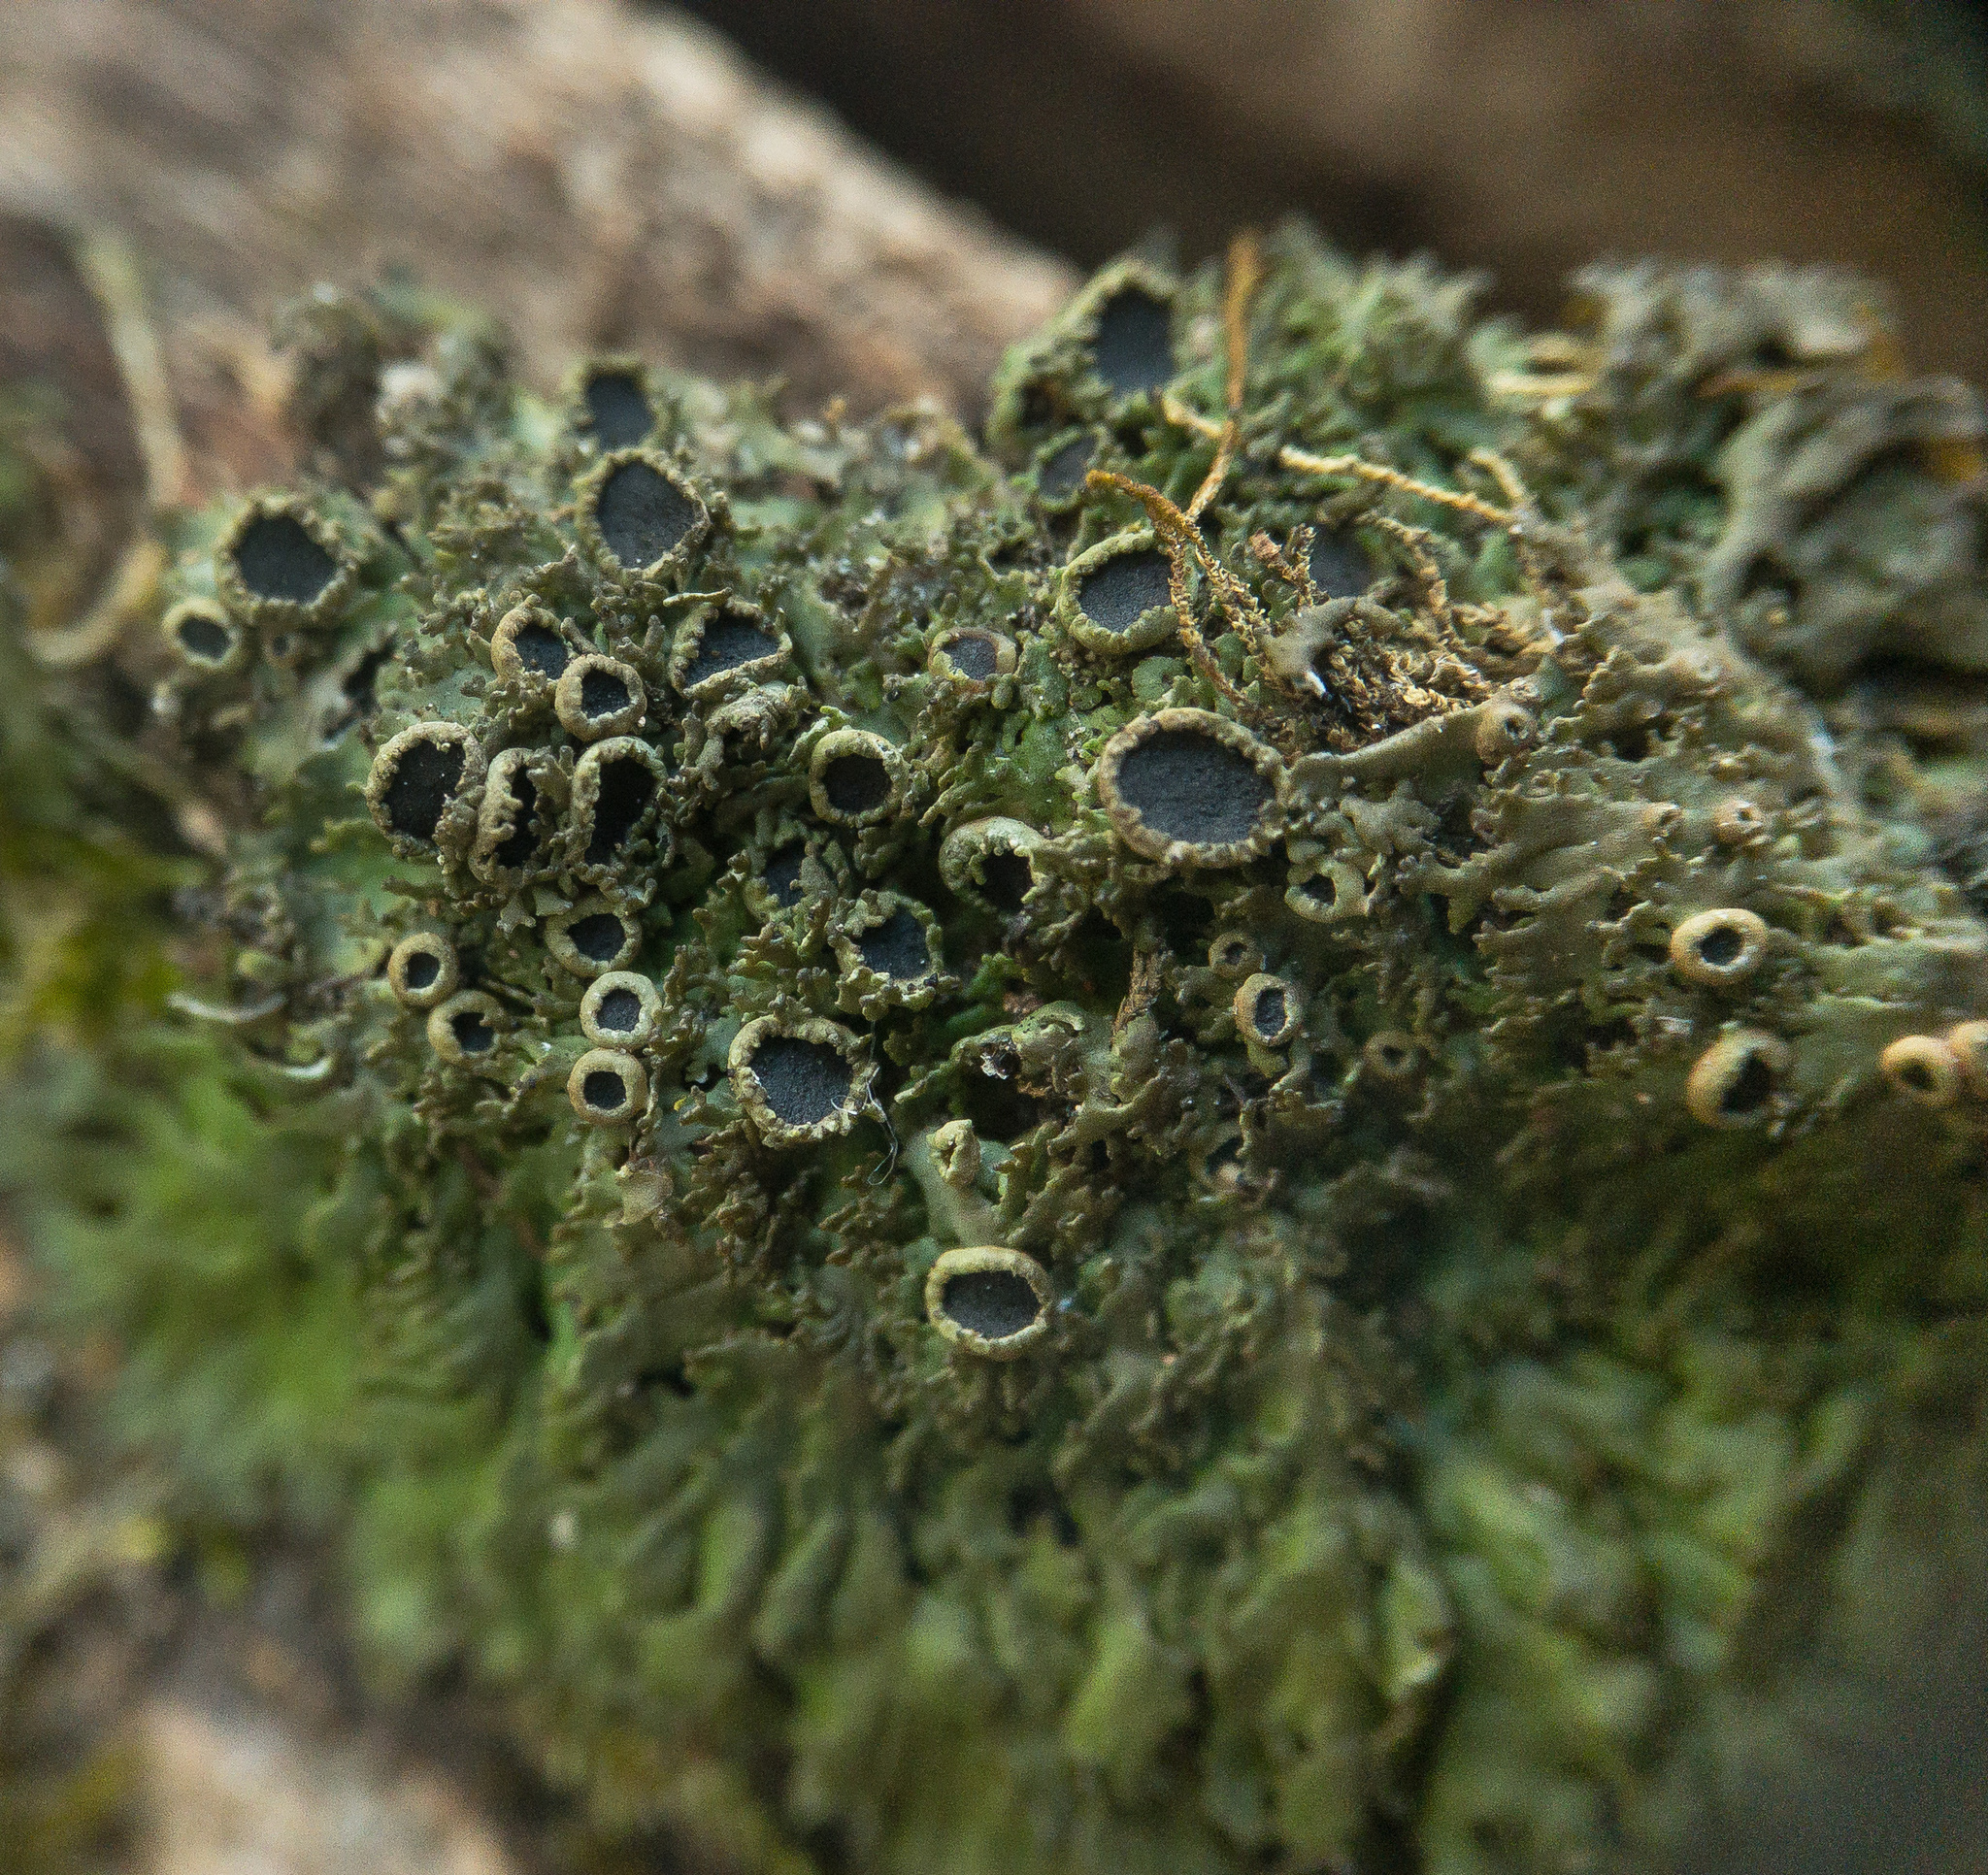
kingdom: Fungi
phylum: Ascomycota
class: Lecanoromycetes
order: Caliciales
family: Physciaceae
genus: Kurokawia
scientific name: Kurokawia palmulata
